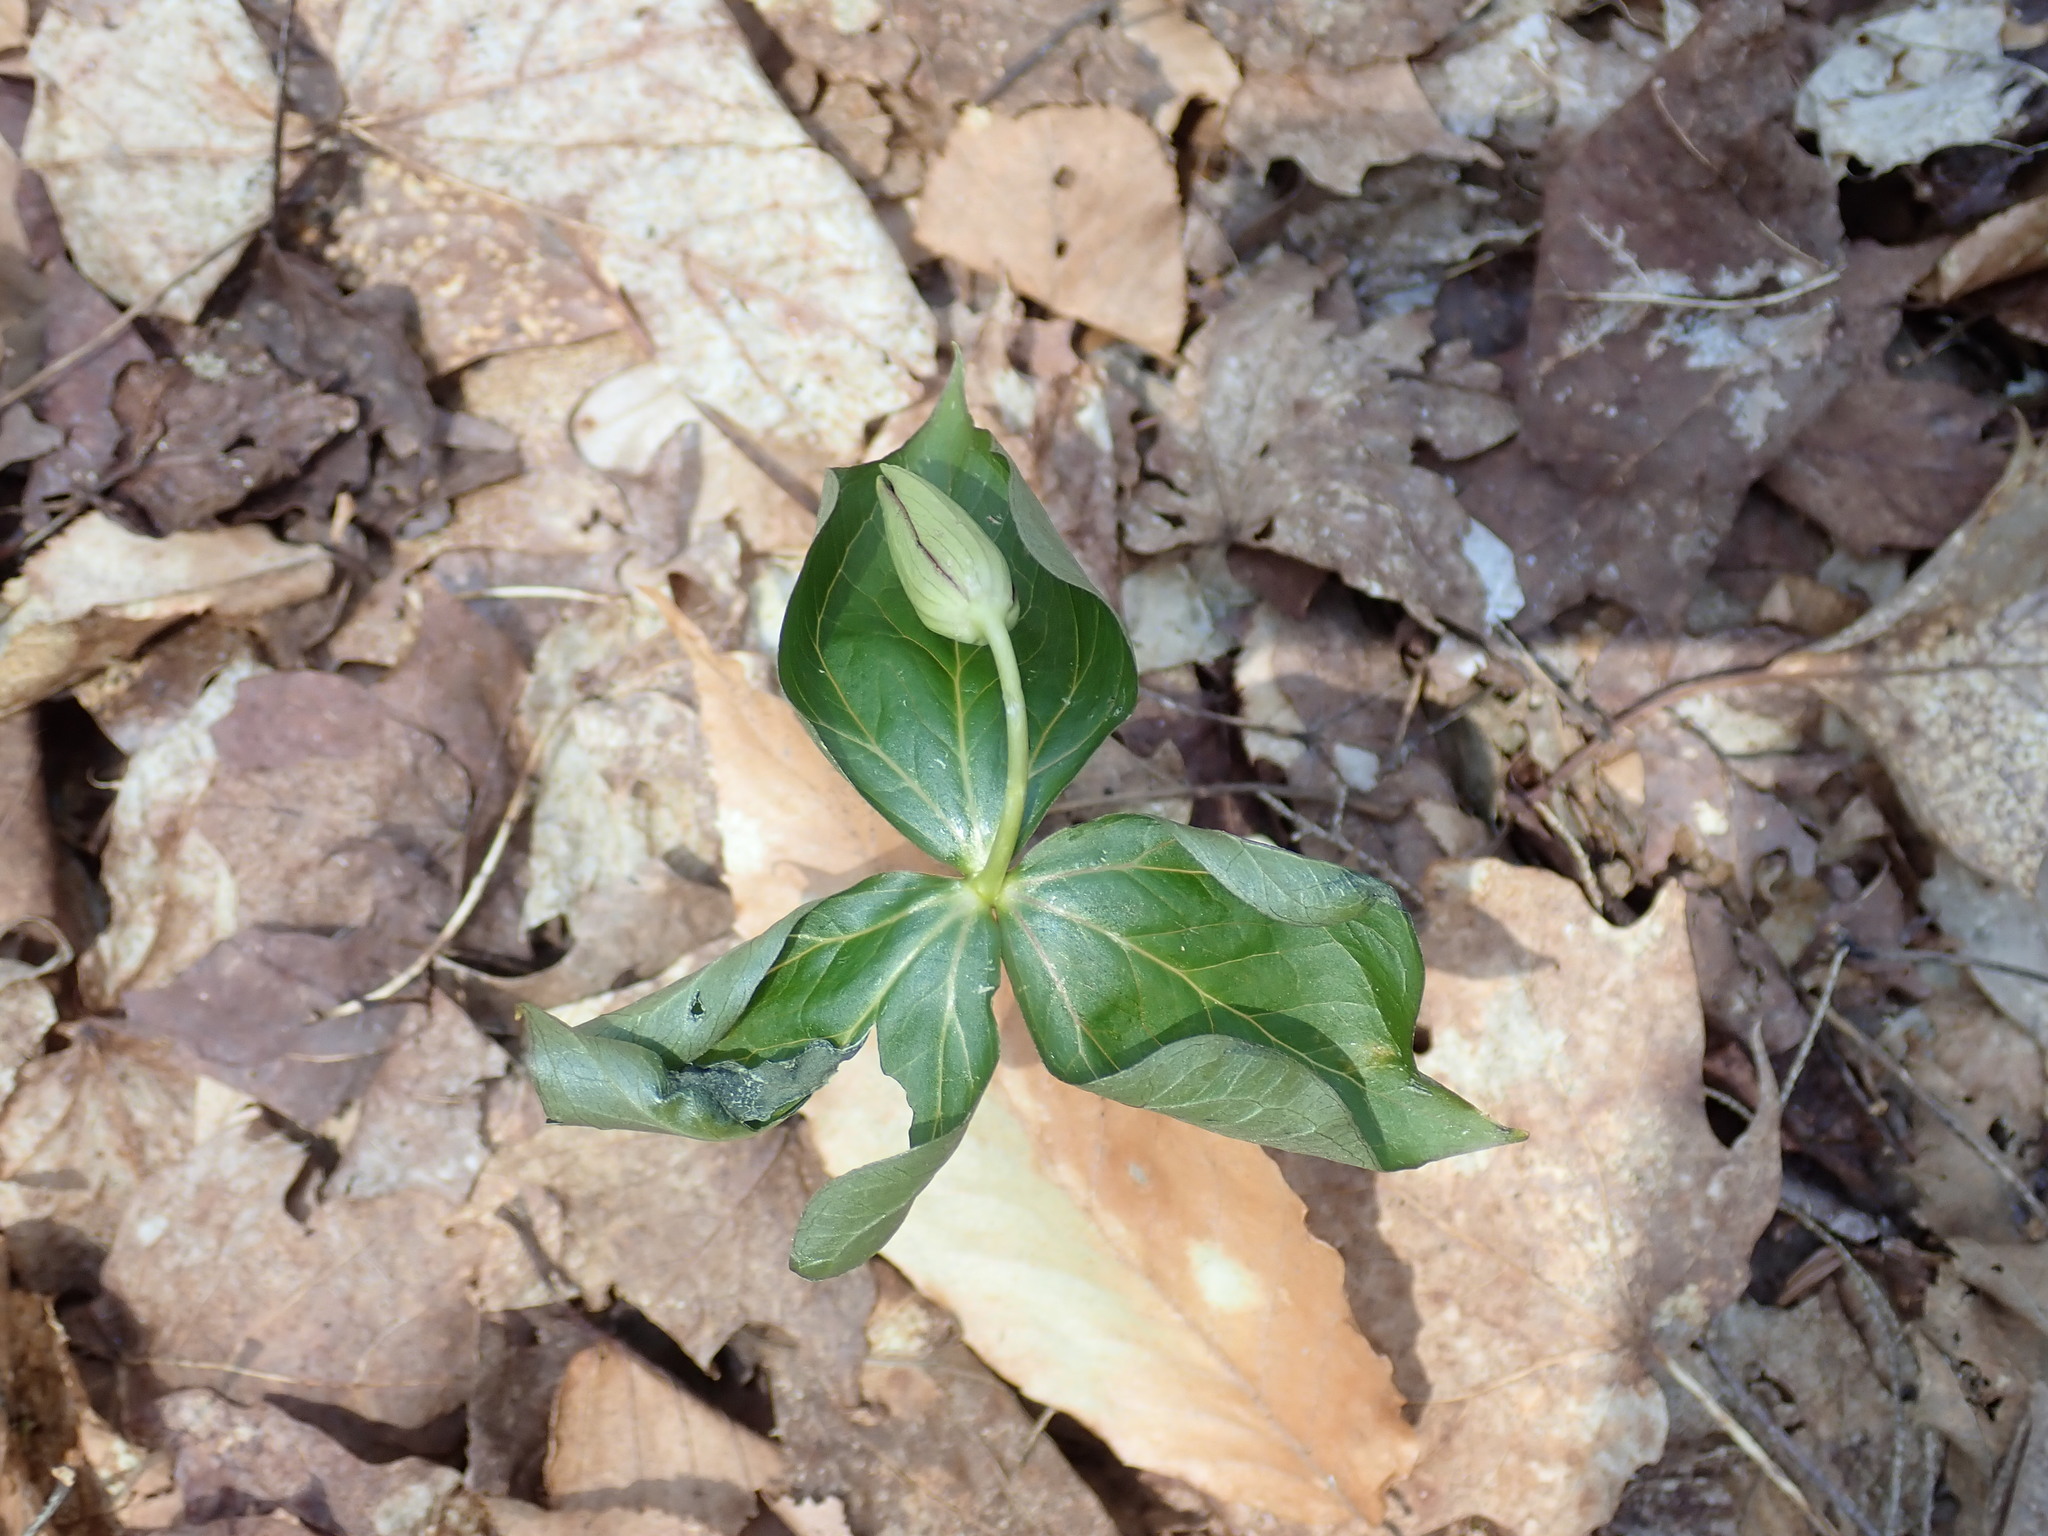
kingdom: Plantae
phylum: Tracheophyta
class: Liliopsida
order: Liliales
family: Melanthiaceae
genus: Trillium
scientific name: Trillium erectum
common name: Purple trillium
